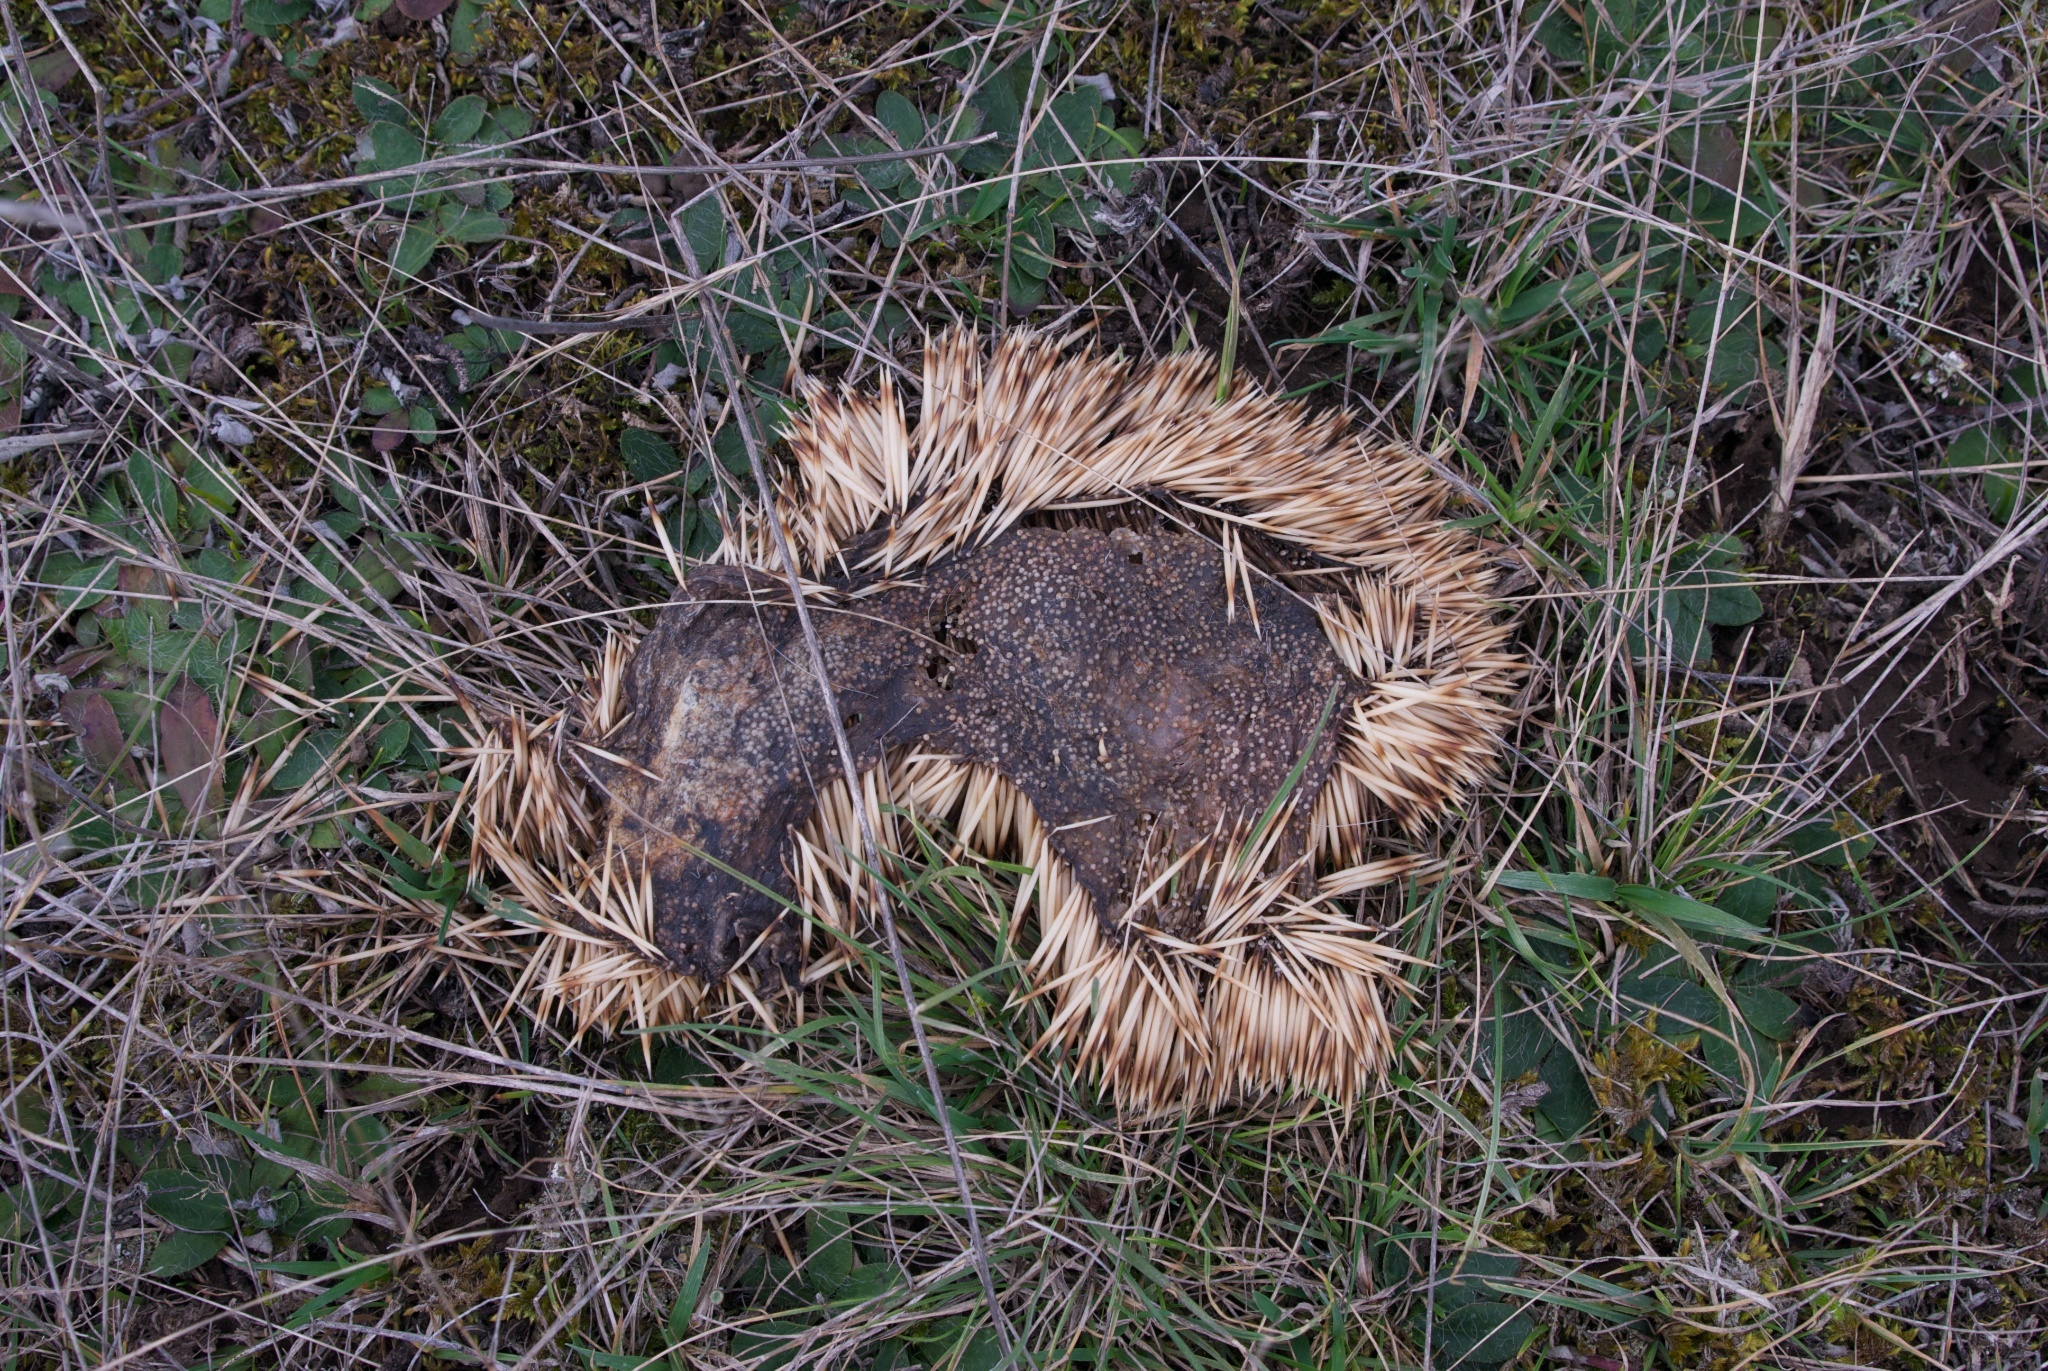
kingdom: Animalia
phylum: Chordata
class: Mammalia
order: Erinaceomorpha
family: Erinaceidae
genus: Erinaceus
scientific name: Erinaceus europaeus
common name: West european hedgehog
